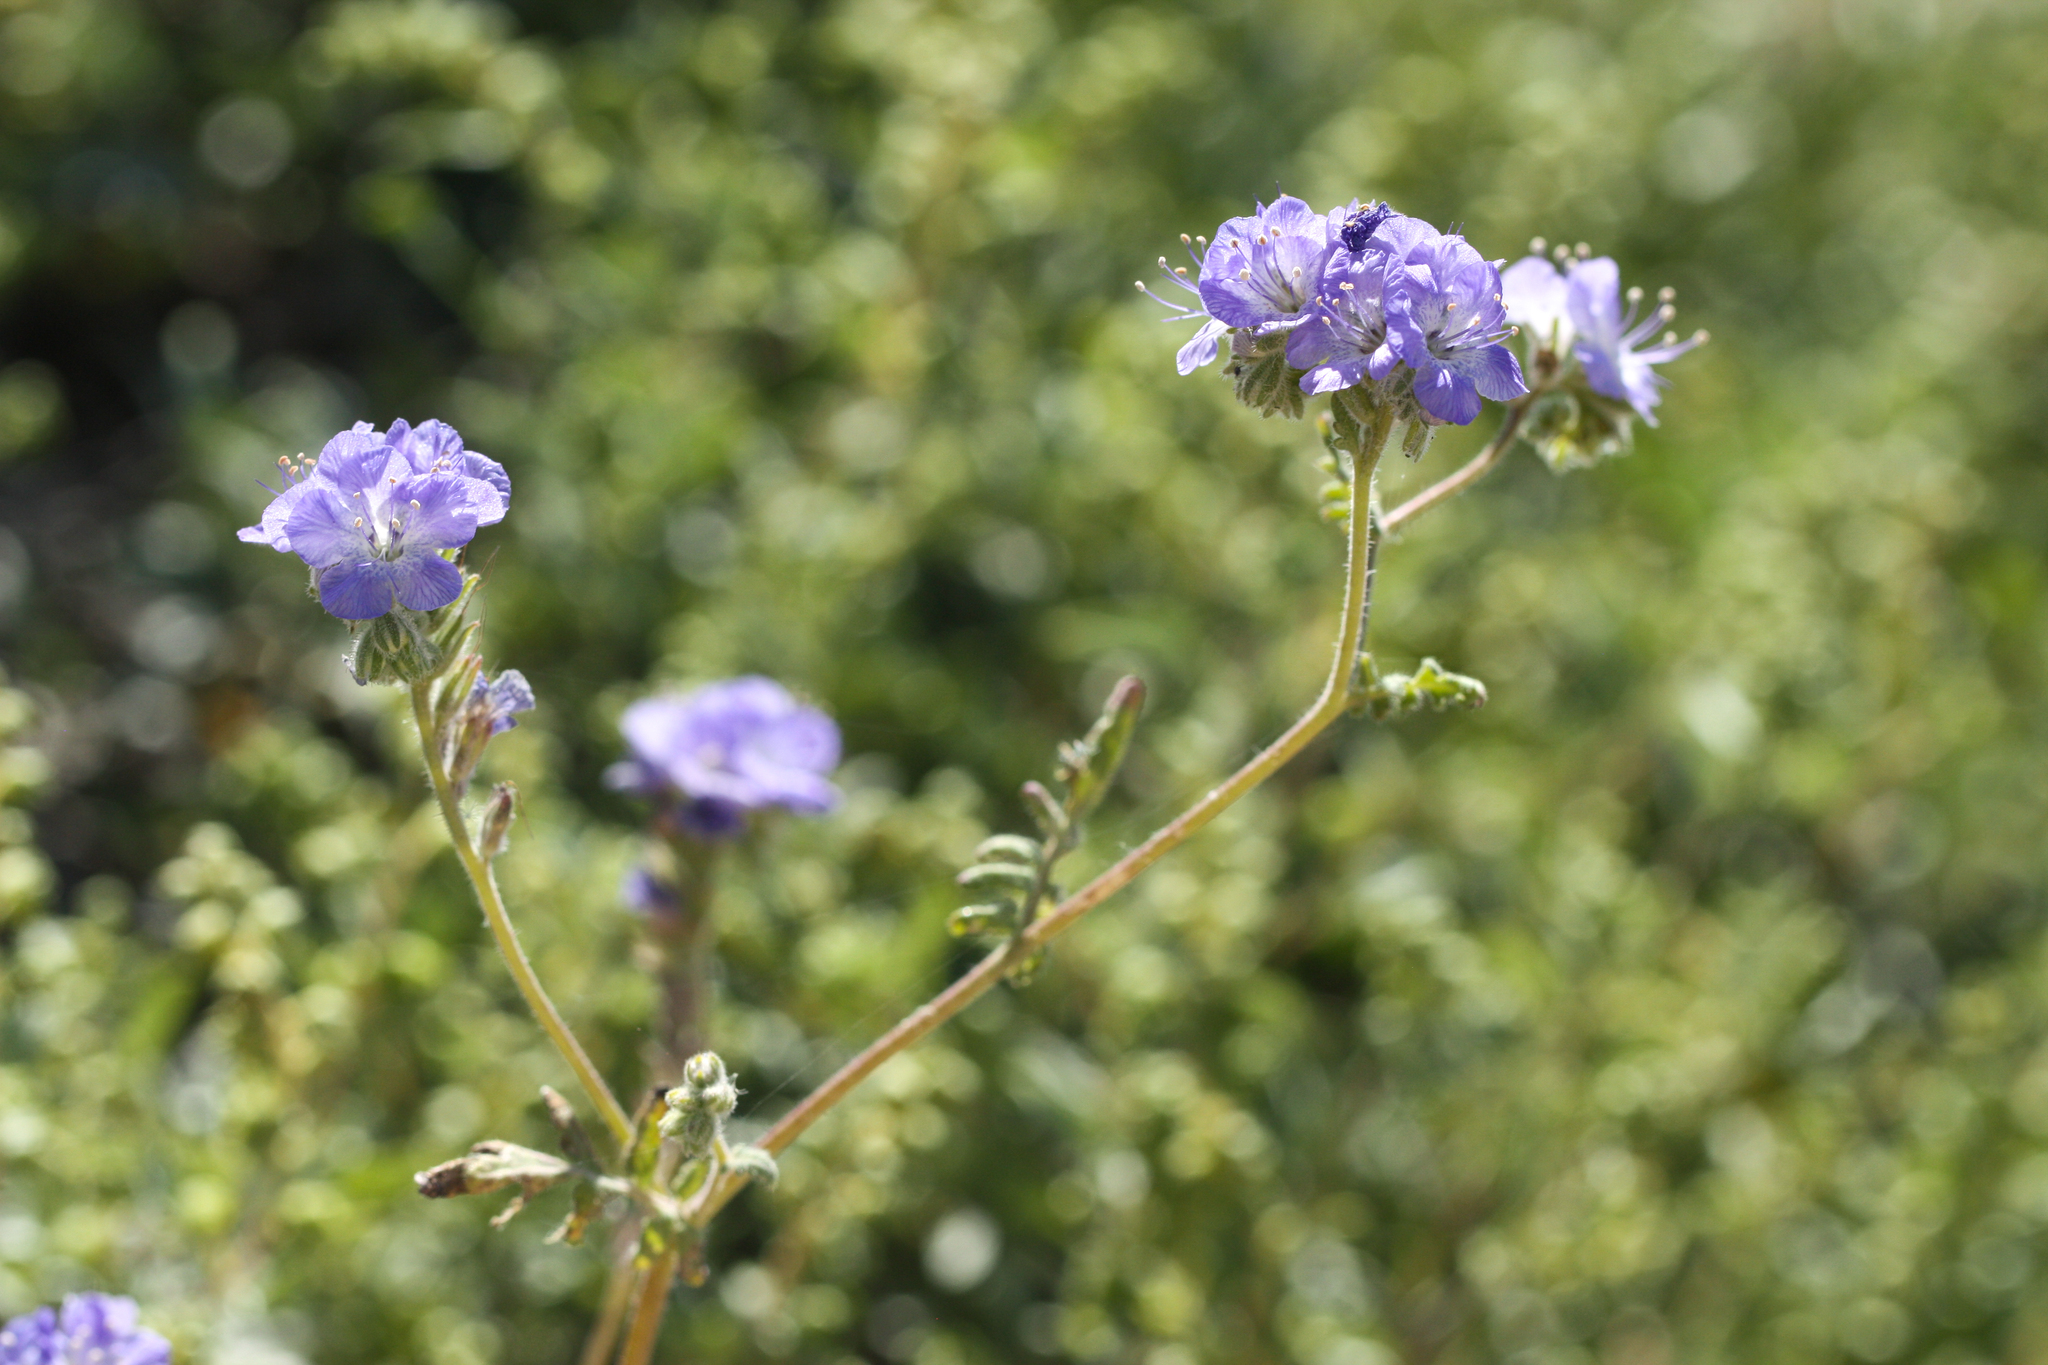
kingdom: Plantae
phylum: Tracheophyta
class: Magnoliopsida
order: Boraginales
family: Hydrophyllaceae
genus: Phacelia
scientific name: Phacelia distans
